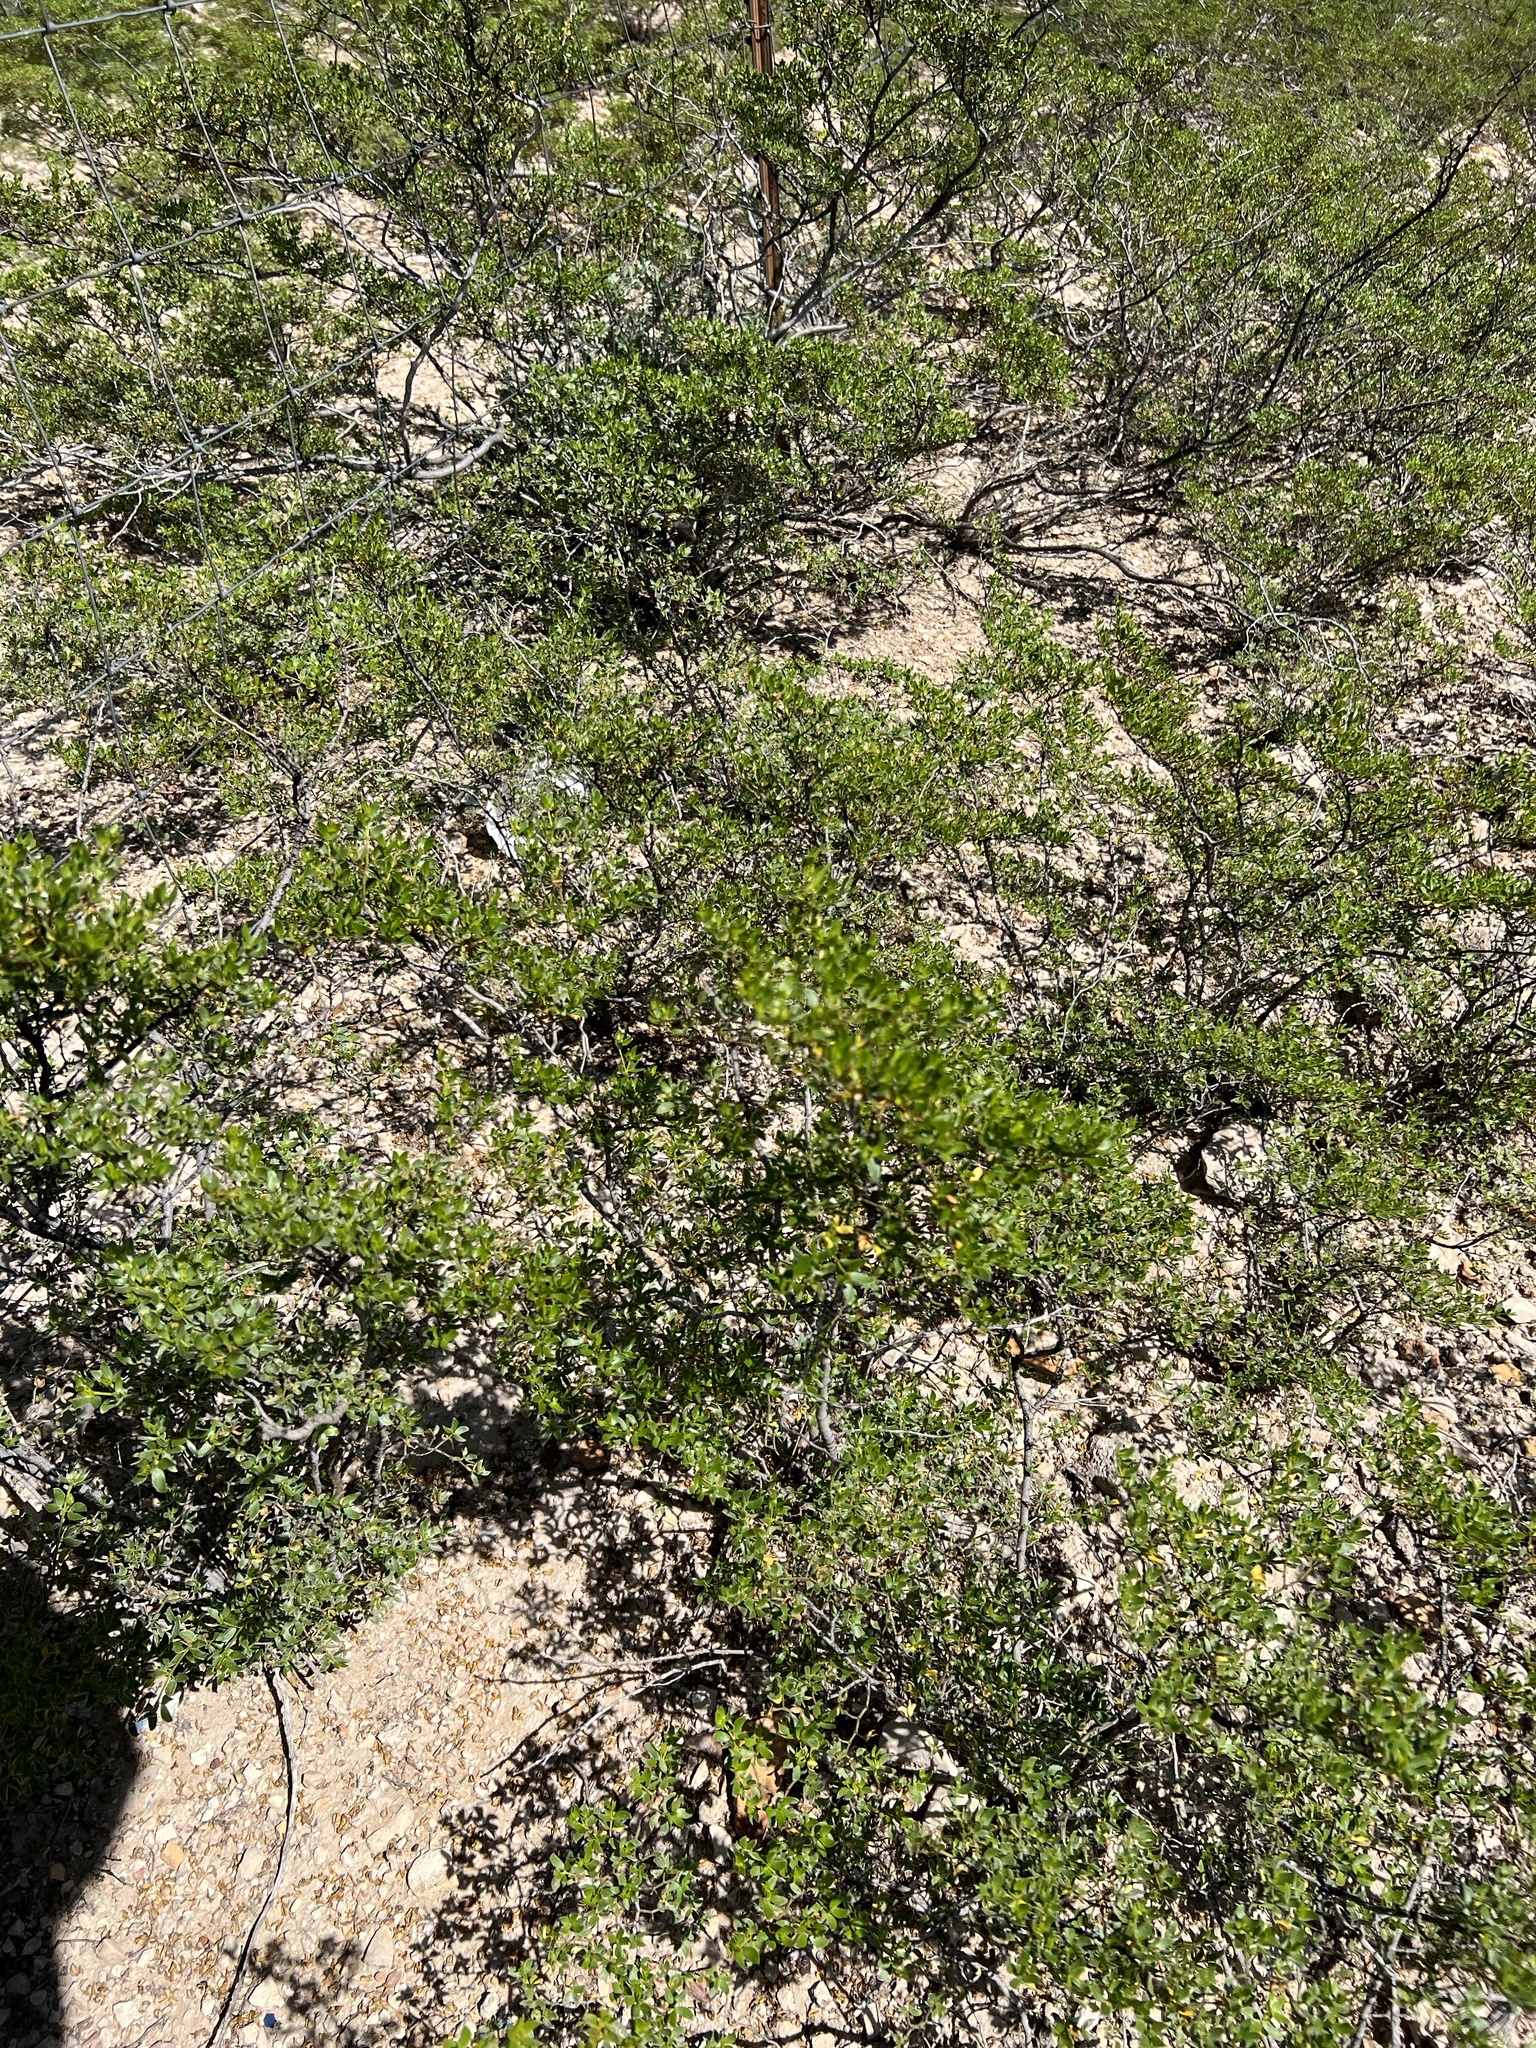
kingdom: Plantae
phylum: Tracheophyta
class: Magnoliopsida
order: Zygophyllales
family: Zygophyllaceae
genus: Larrea
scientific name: Larrea tridentata
